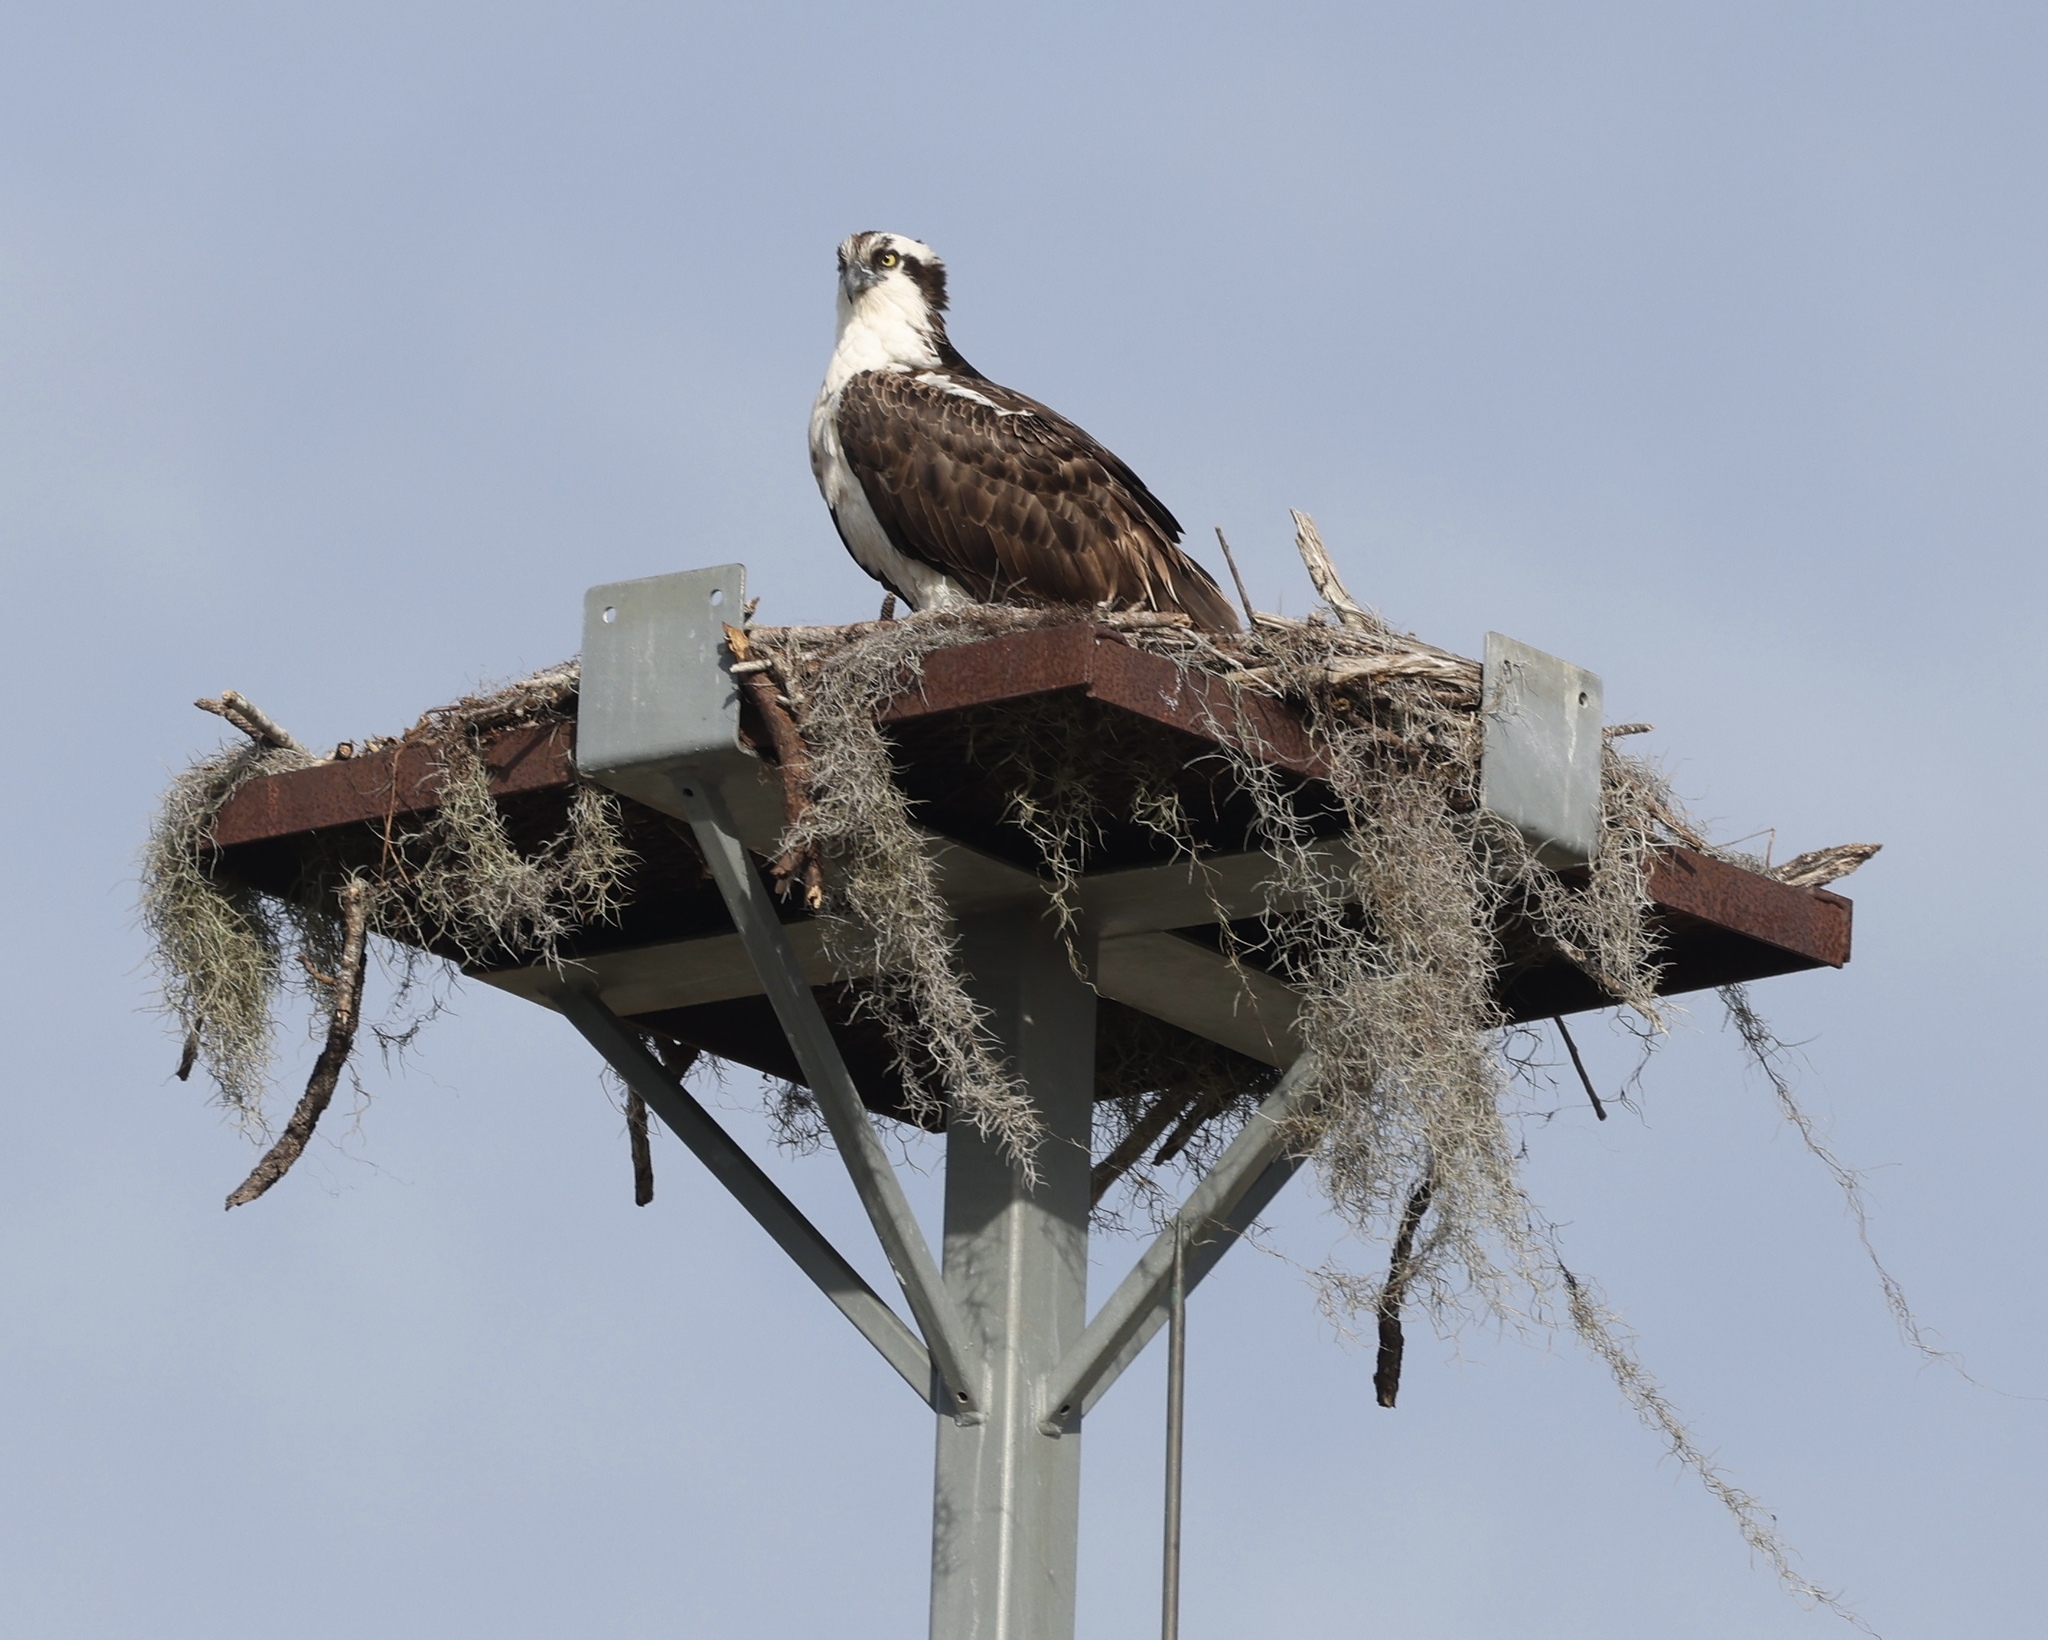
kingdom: Animalia
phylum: Chordata
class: Aves
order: Accipitriformes
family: Pandionidae
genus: Pandion
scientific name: Pandion haliaetus
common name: Osprey
